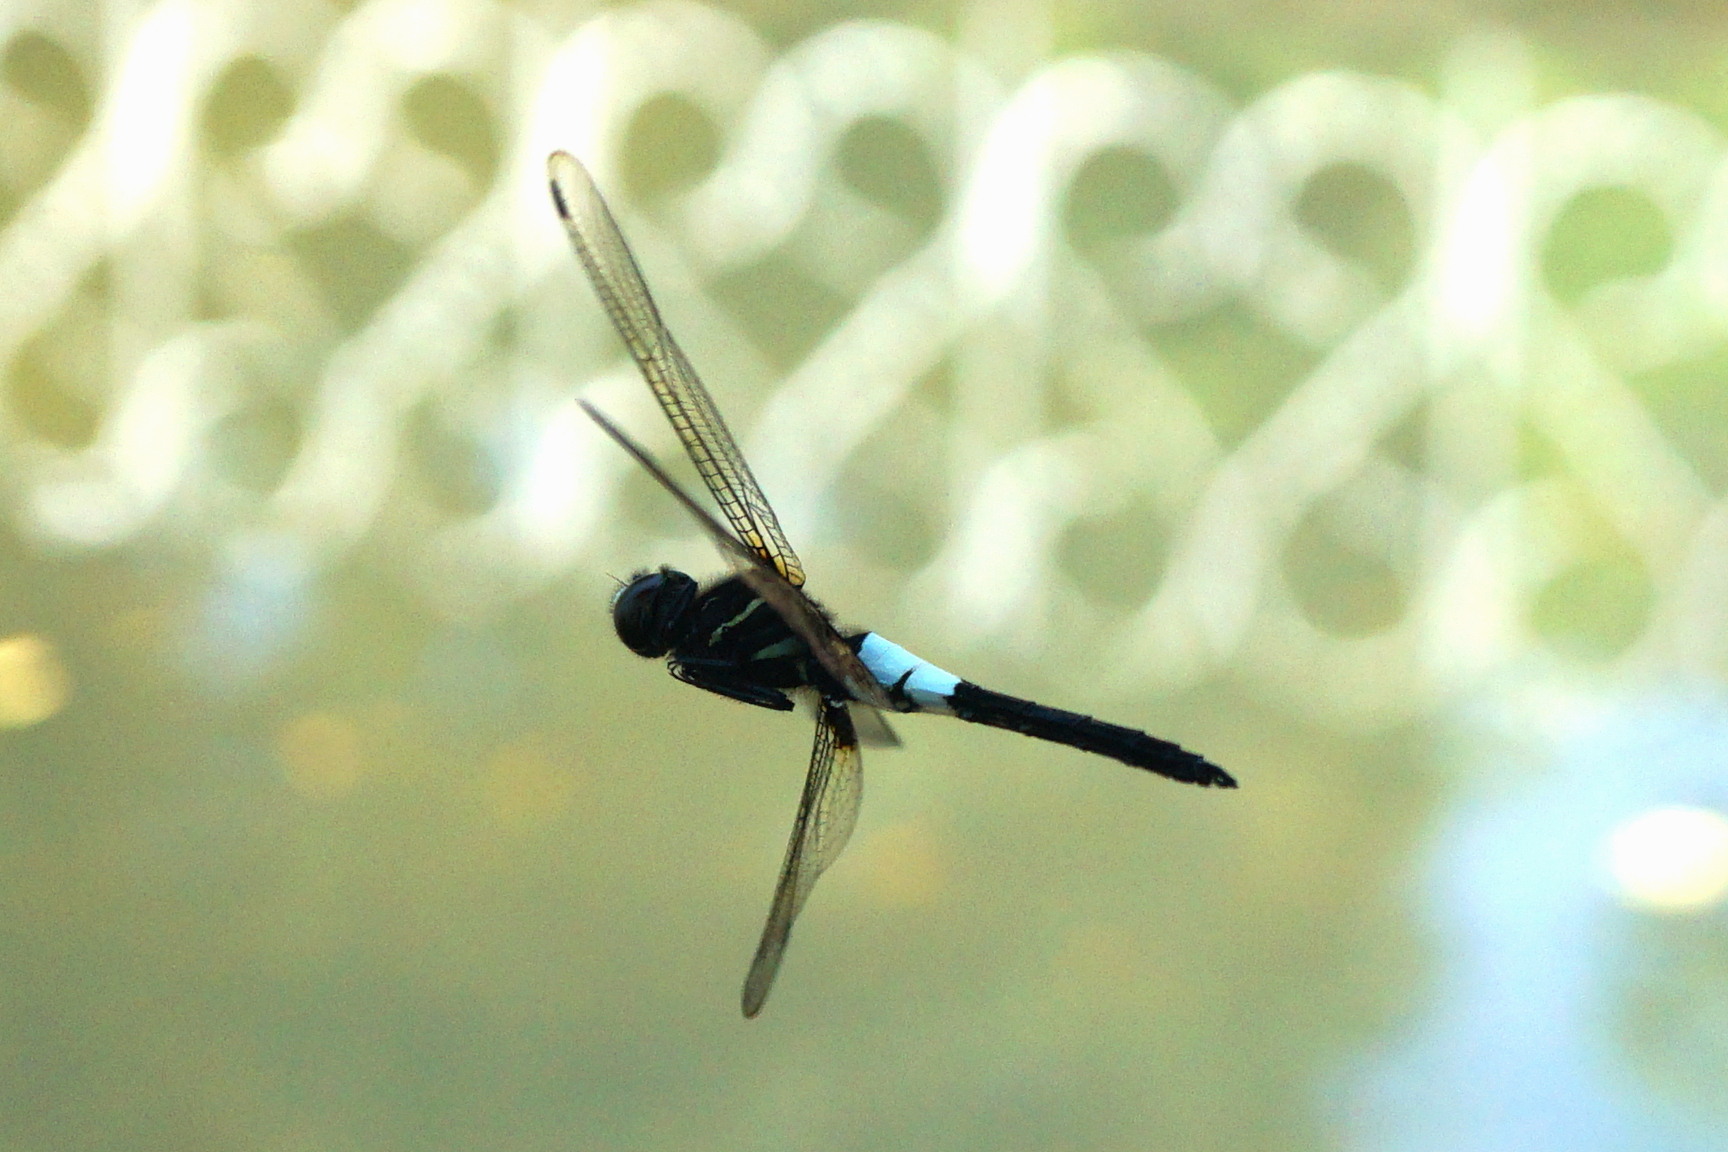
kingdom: Animalia
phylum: Arthropoda
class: Insecta
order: Odonata
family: Libellulidae
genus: Pseudothemis
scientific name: Pseudothemis zonata
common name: Pied skimmer
